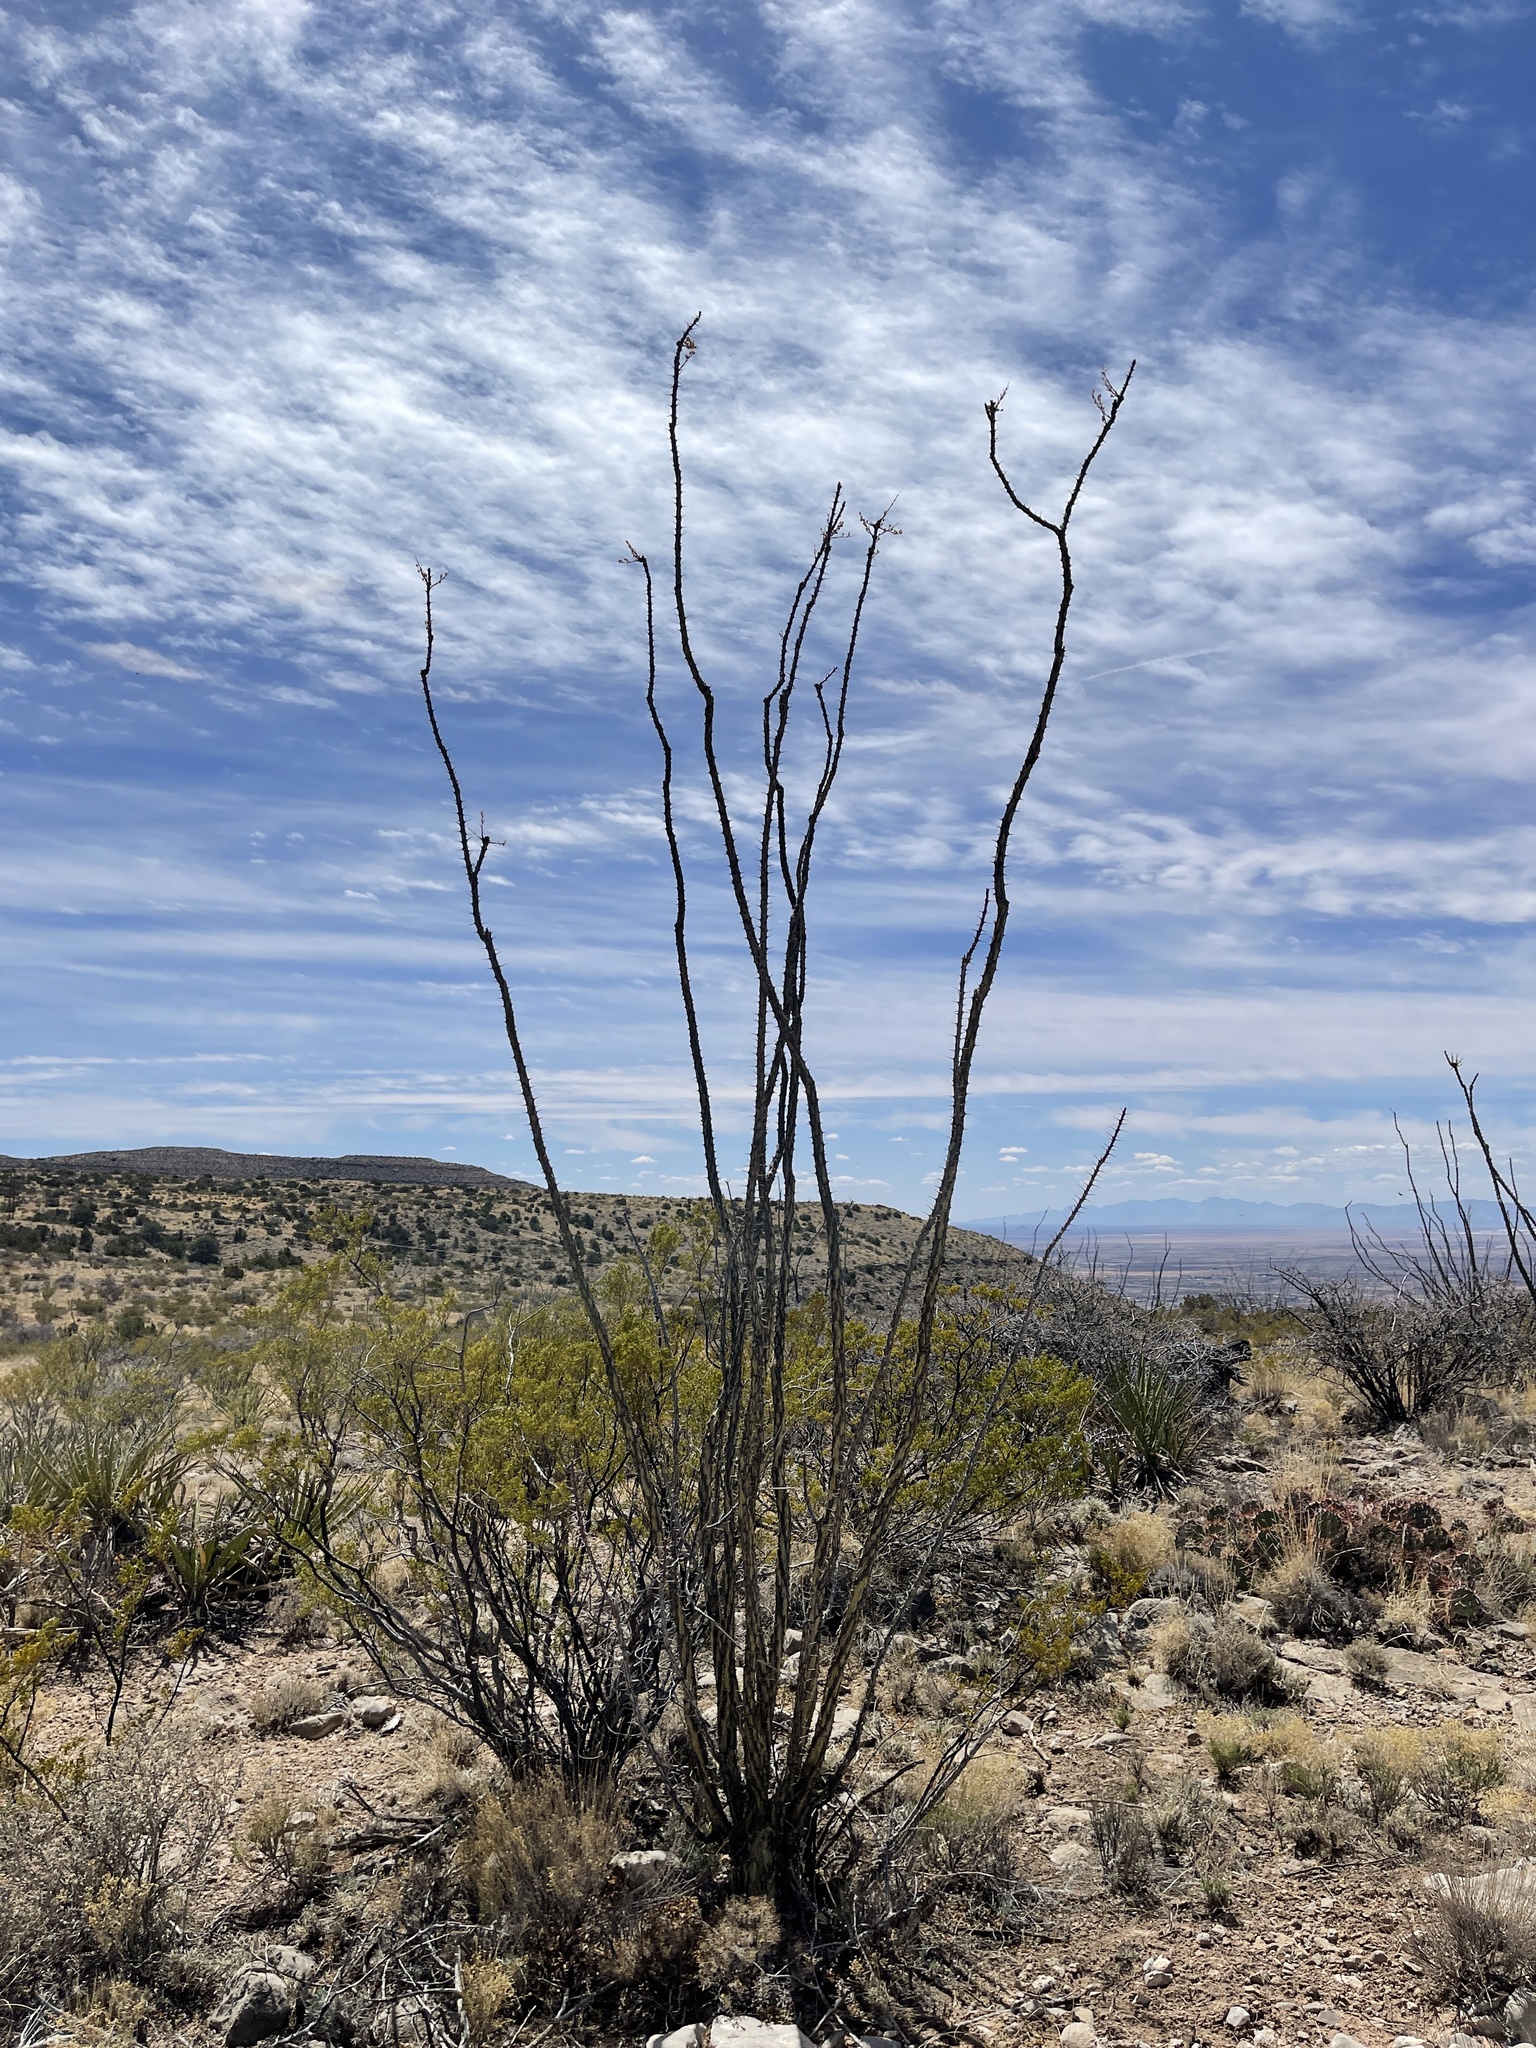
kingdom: Plantae
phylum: Tracheophyta
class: Magnoliopsida
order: Ericales
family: Fouquieriaceae
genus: Fouquieria
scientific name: Fouquieria splendens
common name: Vine-cactus
